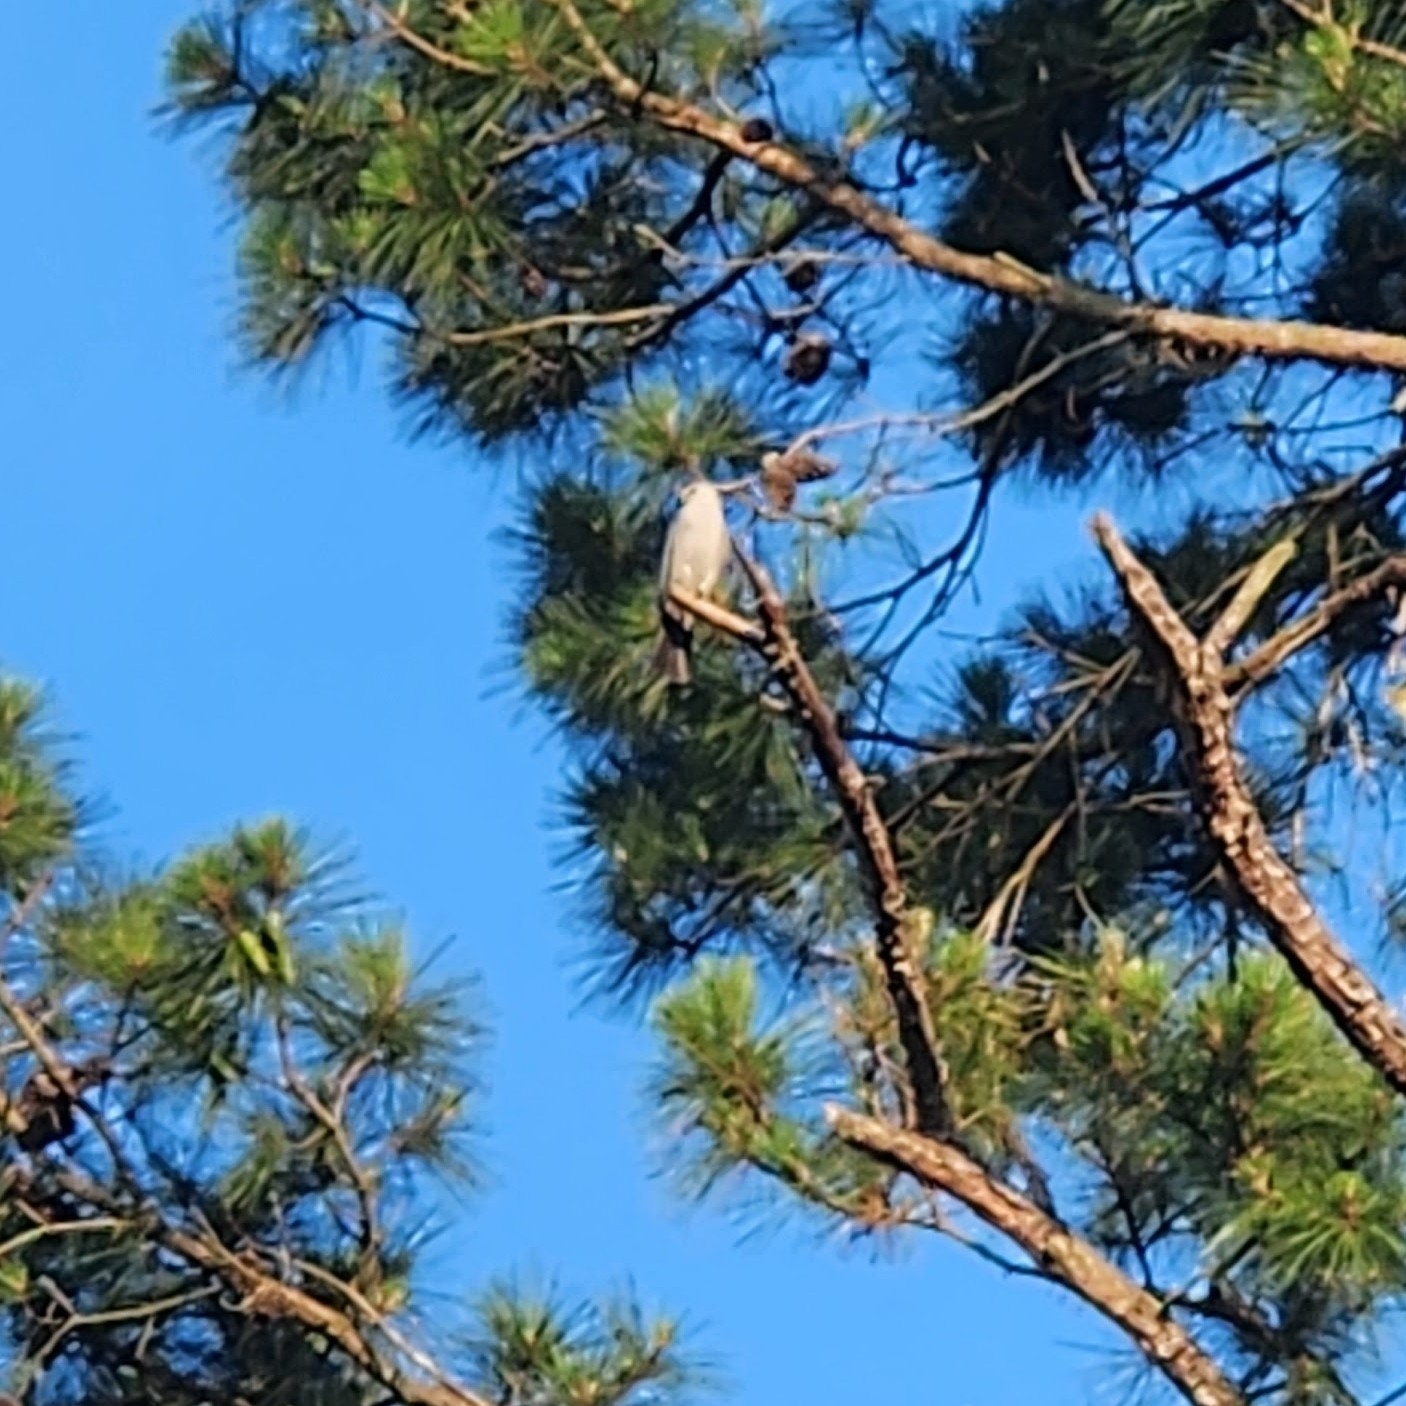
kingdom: Animalia
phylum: Chordata
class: Aves
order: Accipitriformes
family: Accipitridae
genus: Ictinia
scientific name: Ictinia mississippiensis
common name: Mississippi kite
